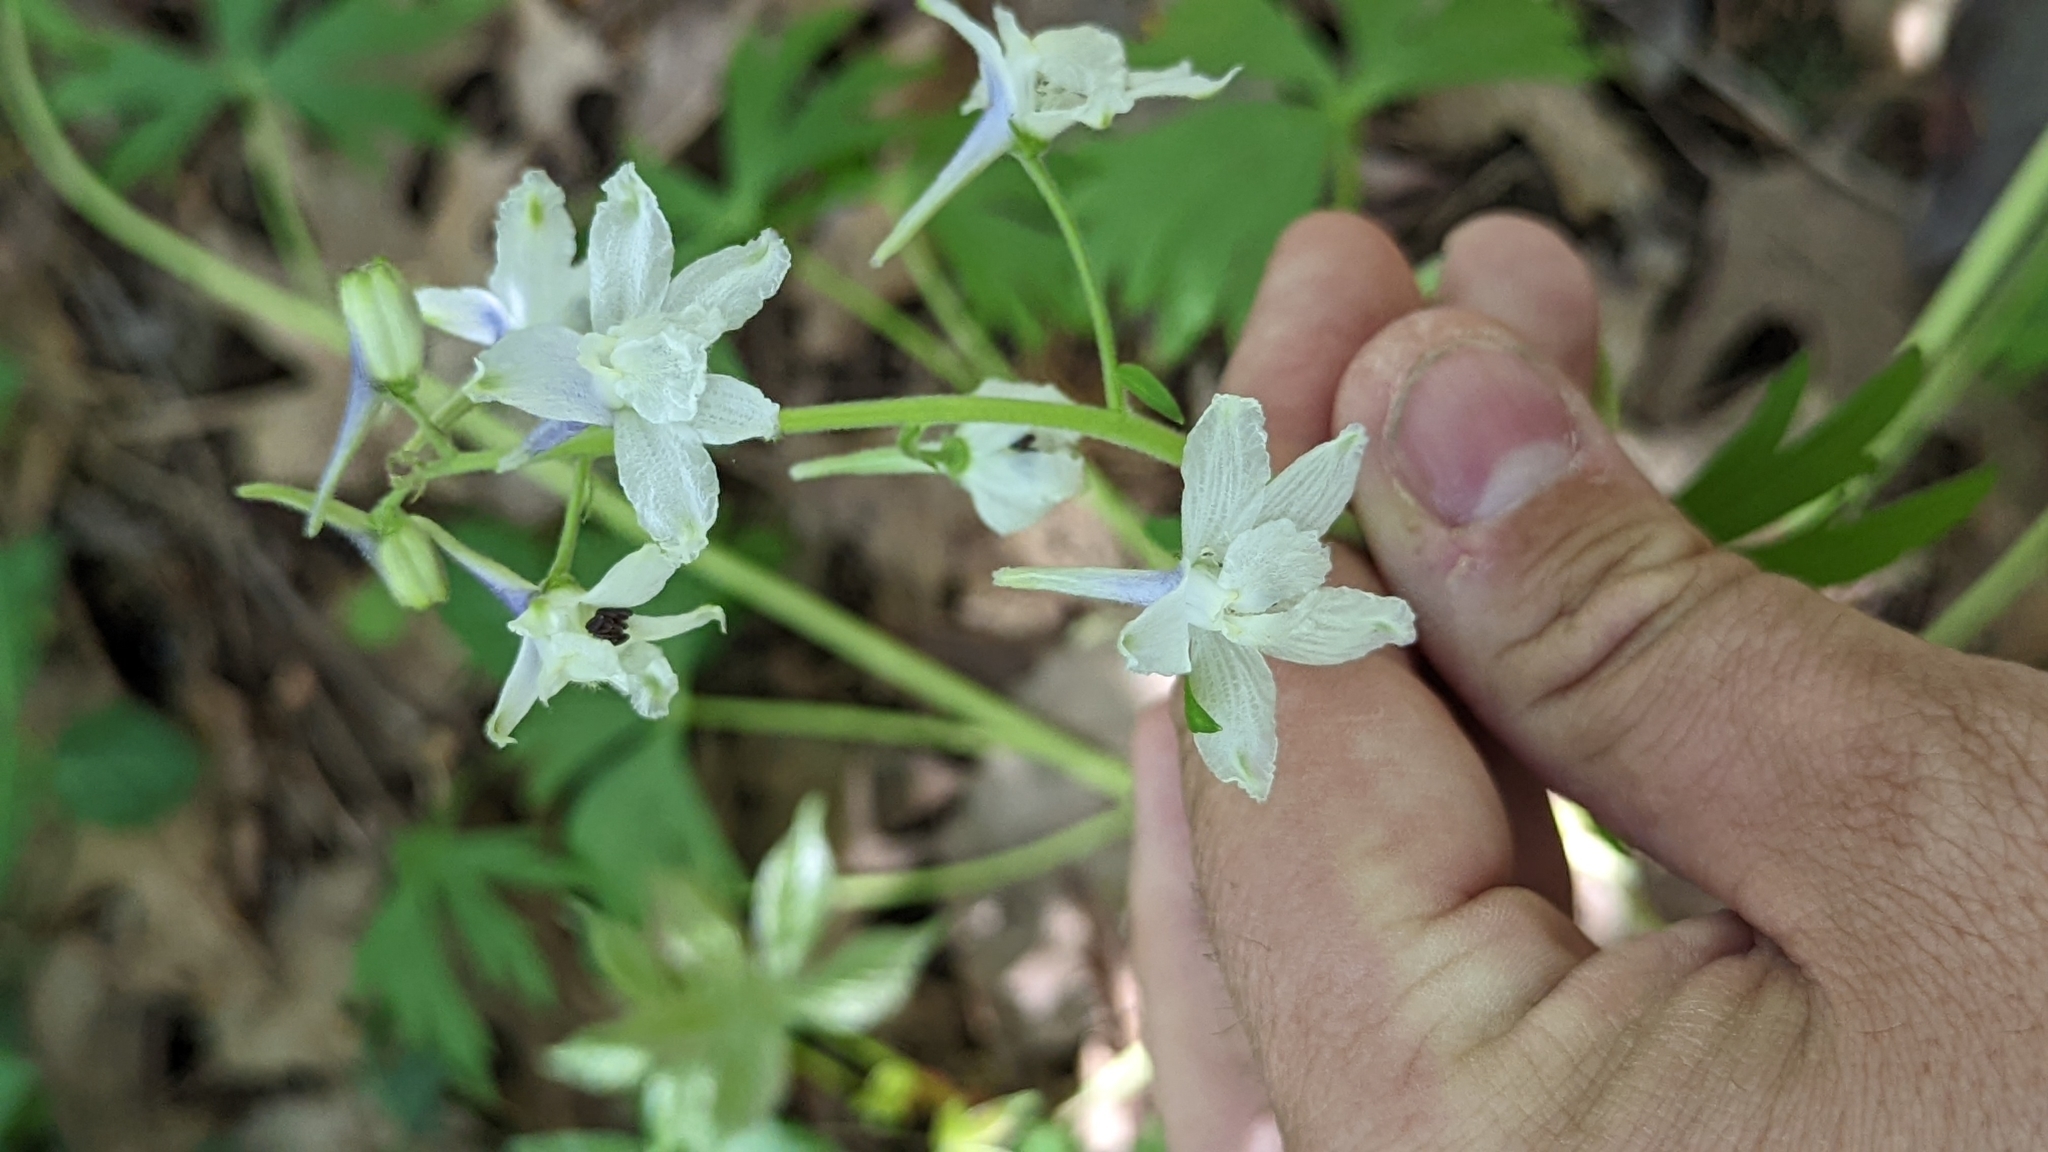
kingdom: Plantae
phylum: Tracheophyta
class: Magnoliopsida
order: Ranunculales
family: Ranunculaceae
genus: Delphinium
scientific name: Delphinium tricorne
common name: Dwarf larkspur
